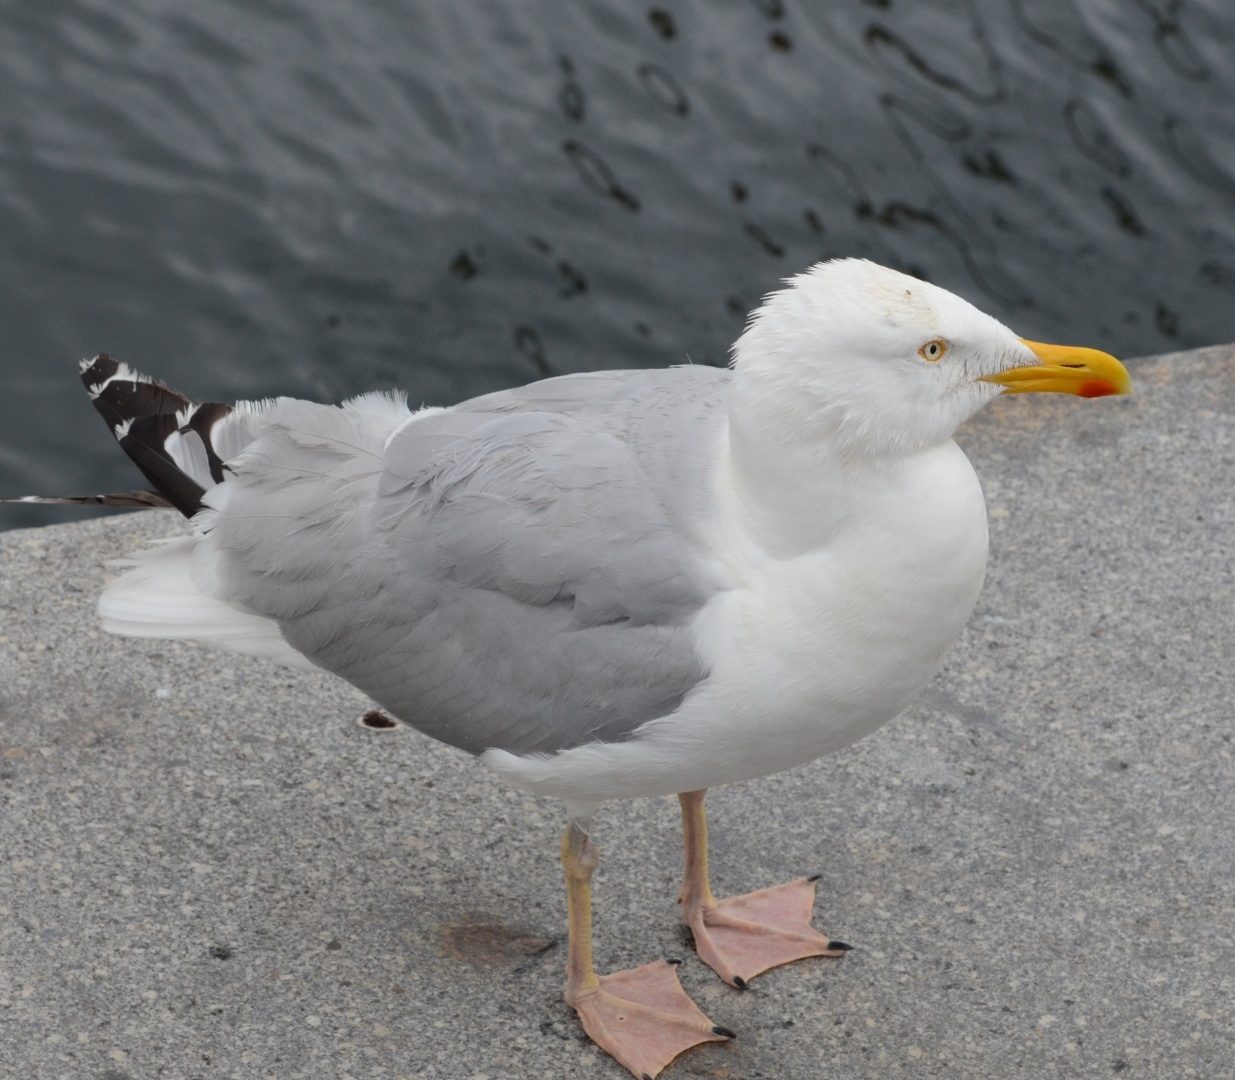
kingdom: Animalia
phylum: Chordata
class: Aves
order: Charadriiformes
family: Laridae
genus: Larus
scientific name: Larus argentatus
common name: Herring gull
